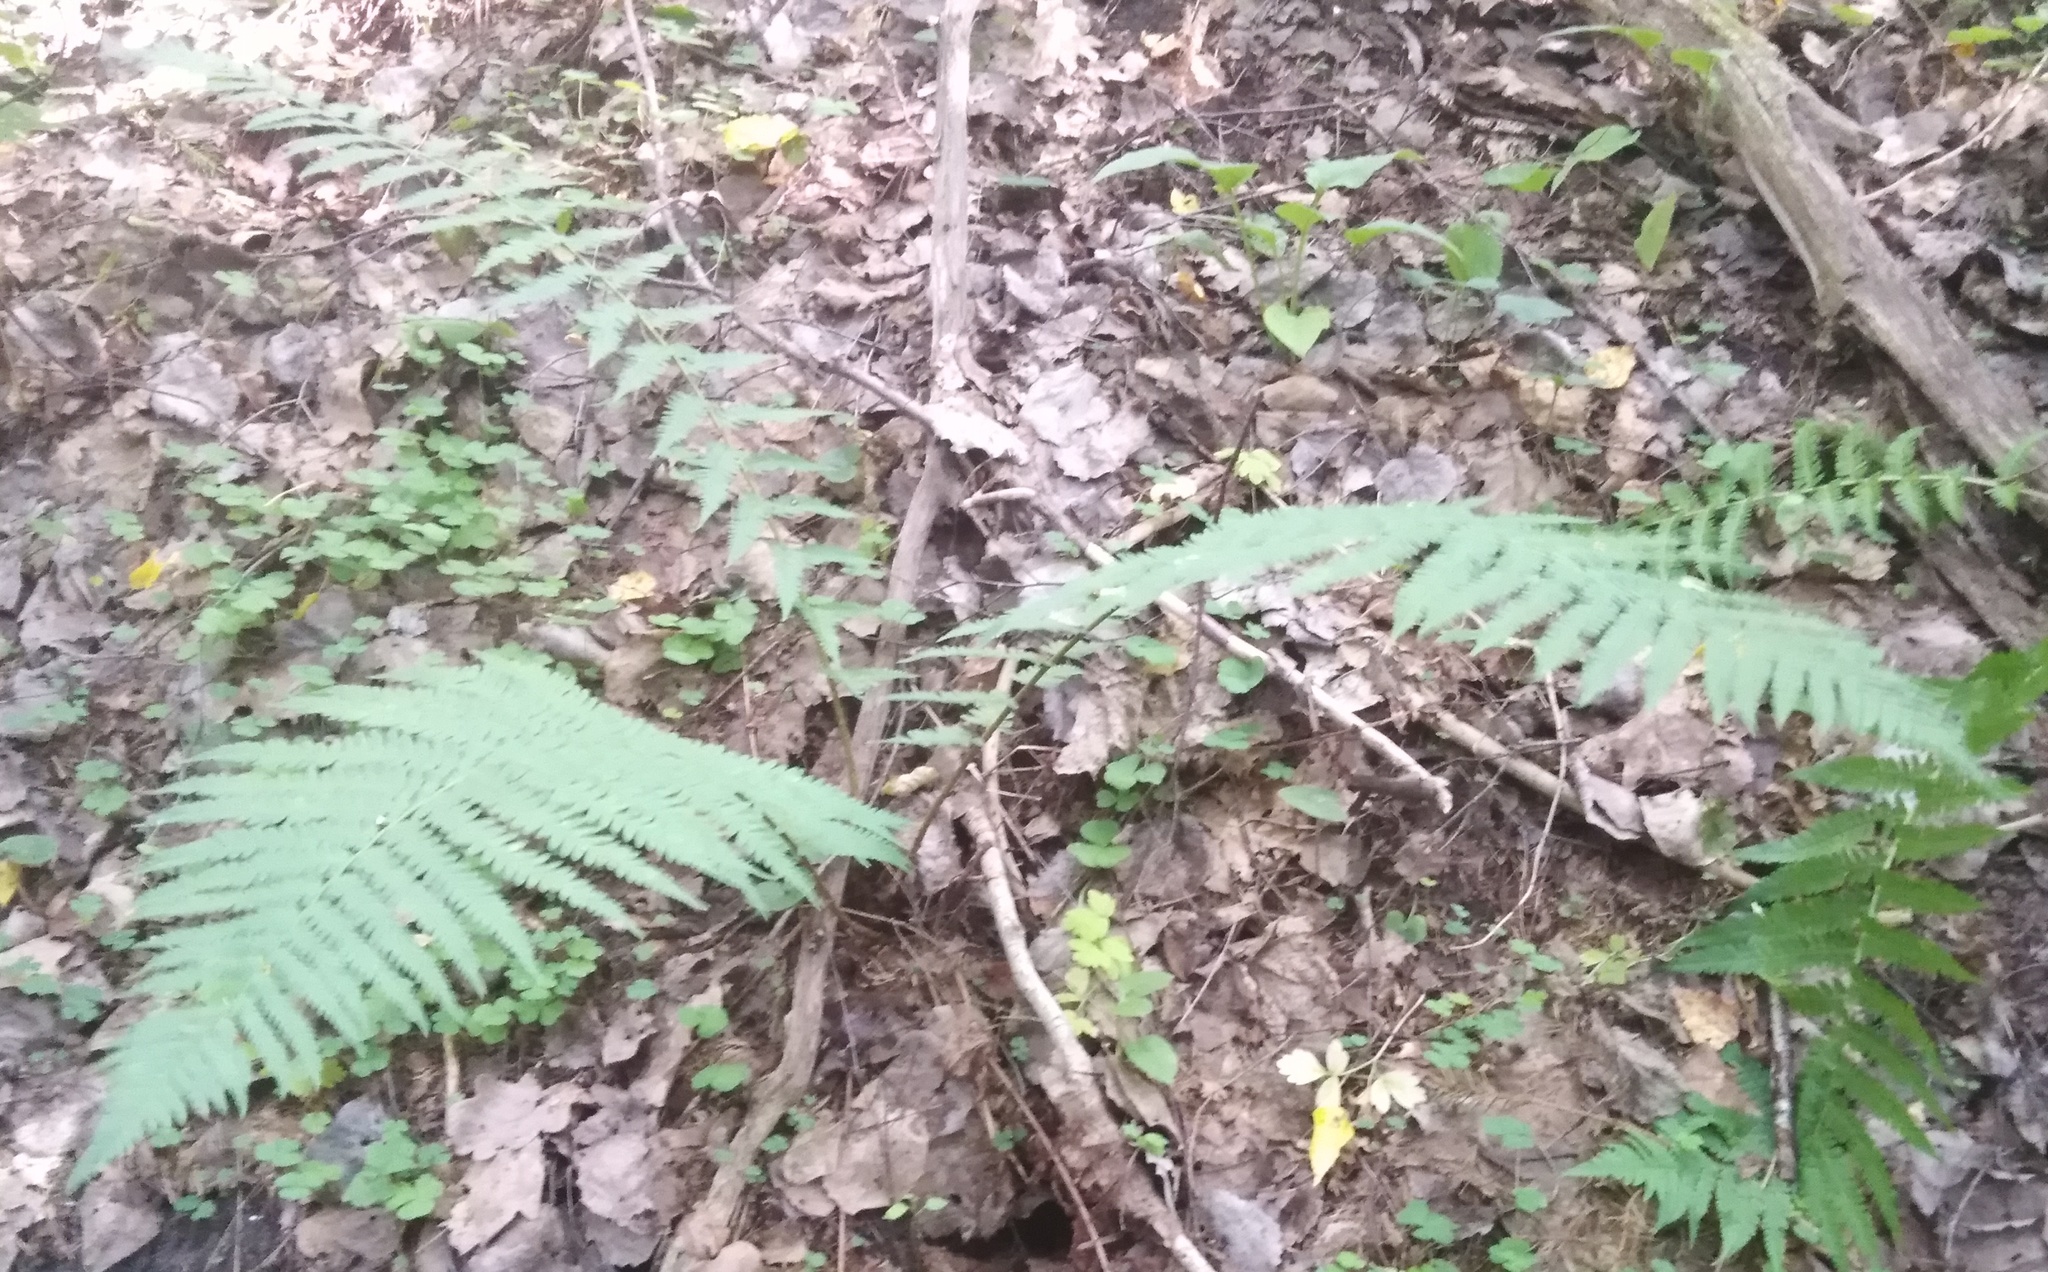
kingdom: Plantae
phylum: Tracheophyta
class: Polypodiopsida
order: Polypodiales
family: Dryopteridaceae
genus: Dryopteris
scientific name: Dryopteris filix-mas
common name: Male fern
